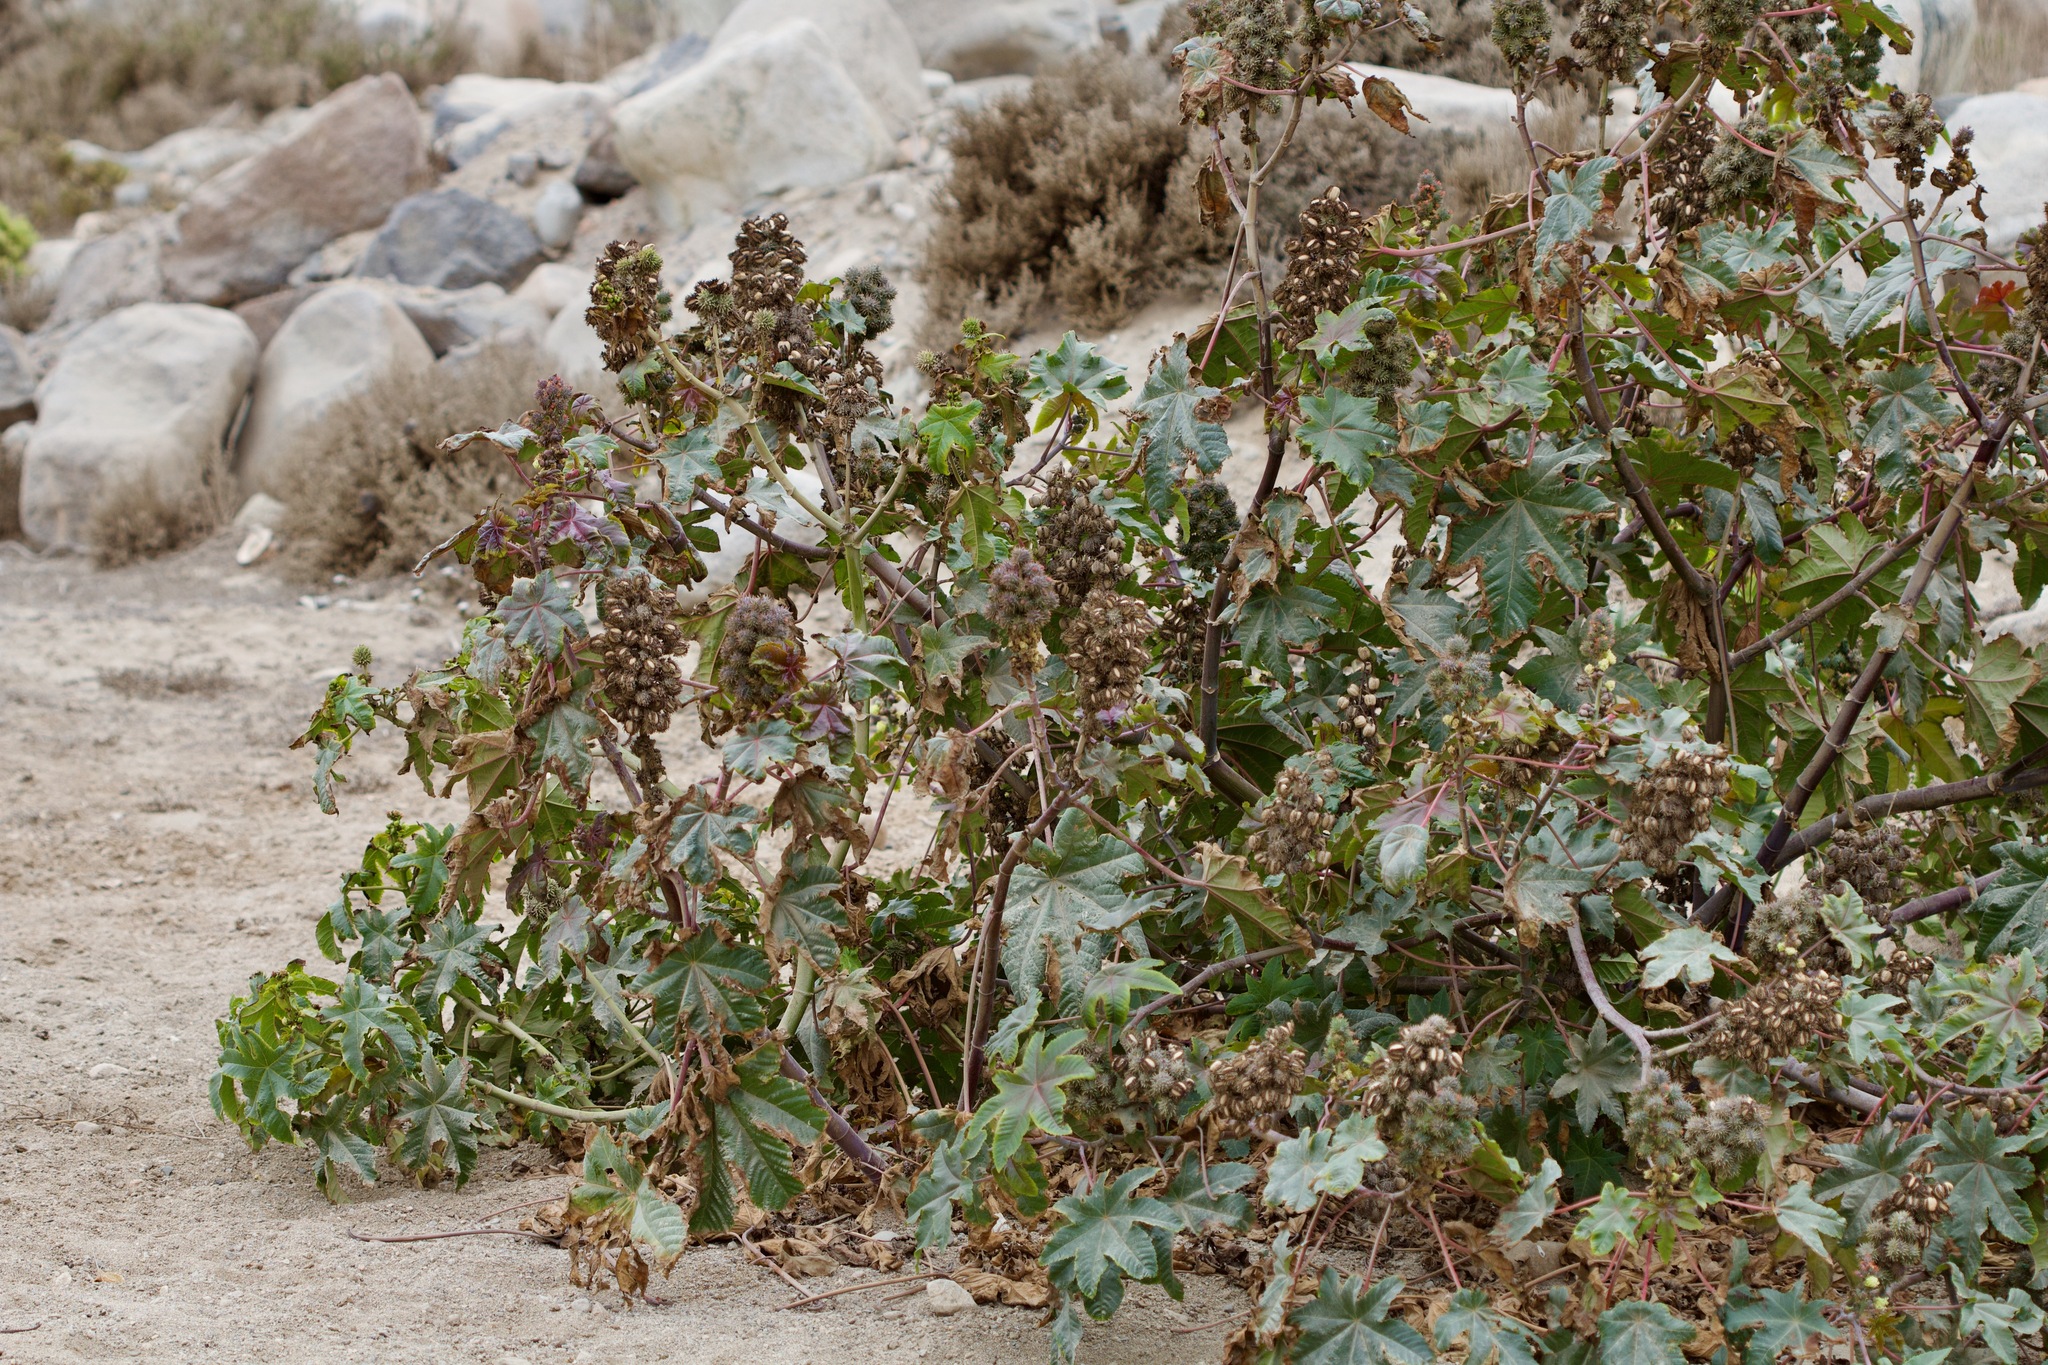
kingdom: Plantae
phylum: Tracheophyta
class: Magnoliopsida
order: Malpighiales
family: Euphorbiaceae
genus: Ricinus
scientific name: Ricinus communis
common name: Castor-oil-plant
